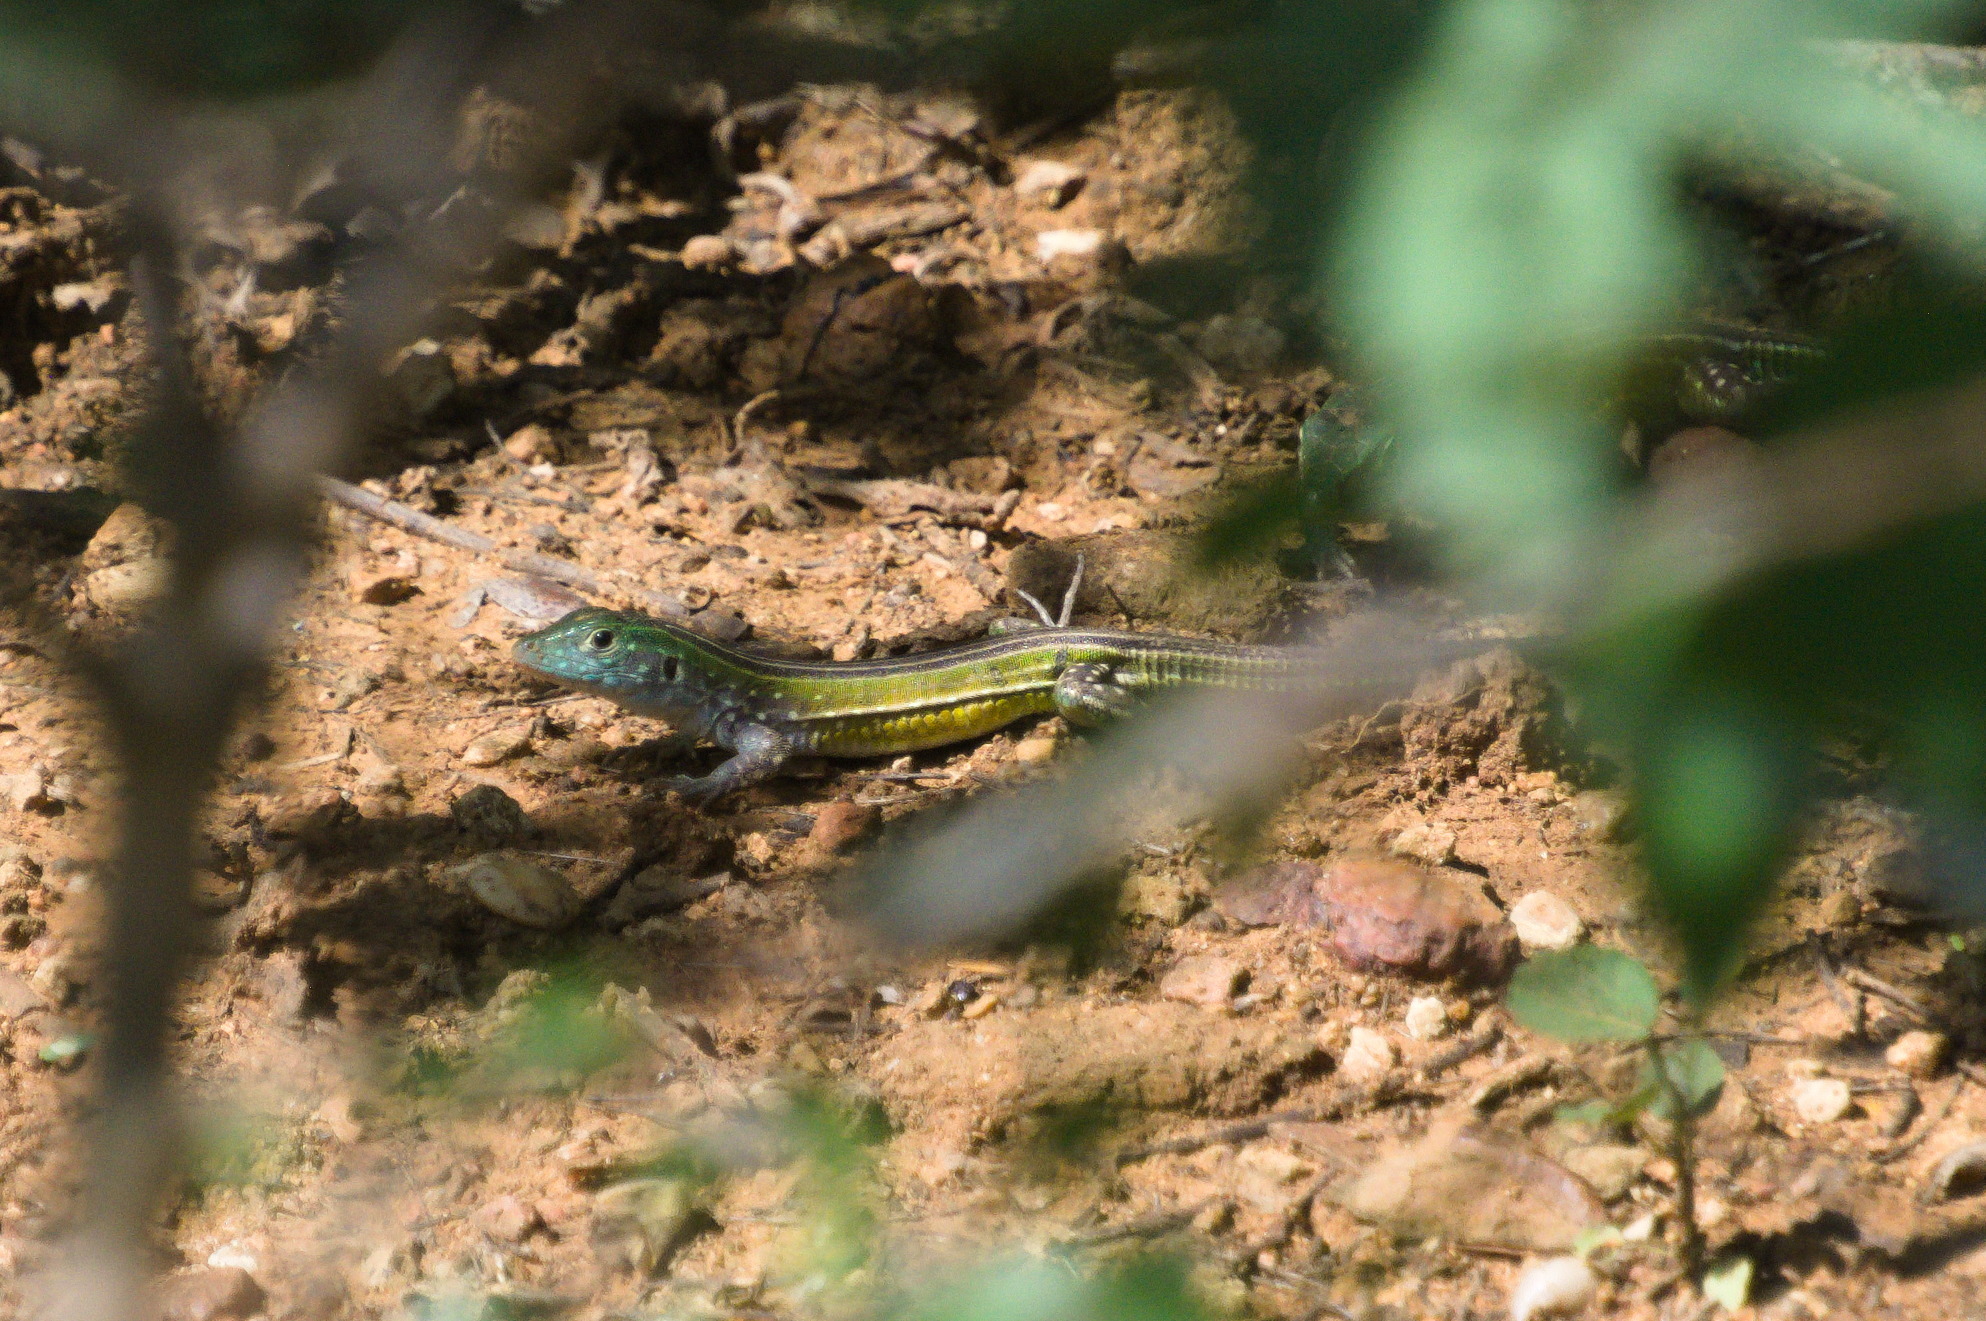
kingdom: Animalia
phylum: Chordata
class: Squamata
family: Teiidae
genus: Cnemidophorus
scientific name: Cnemidophorus gaigei
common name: Gaige’s rainbow lizard
